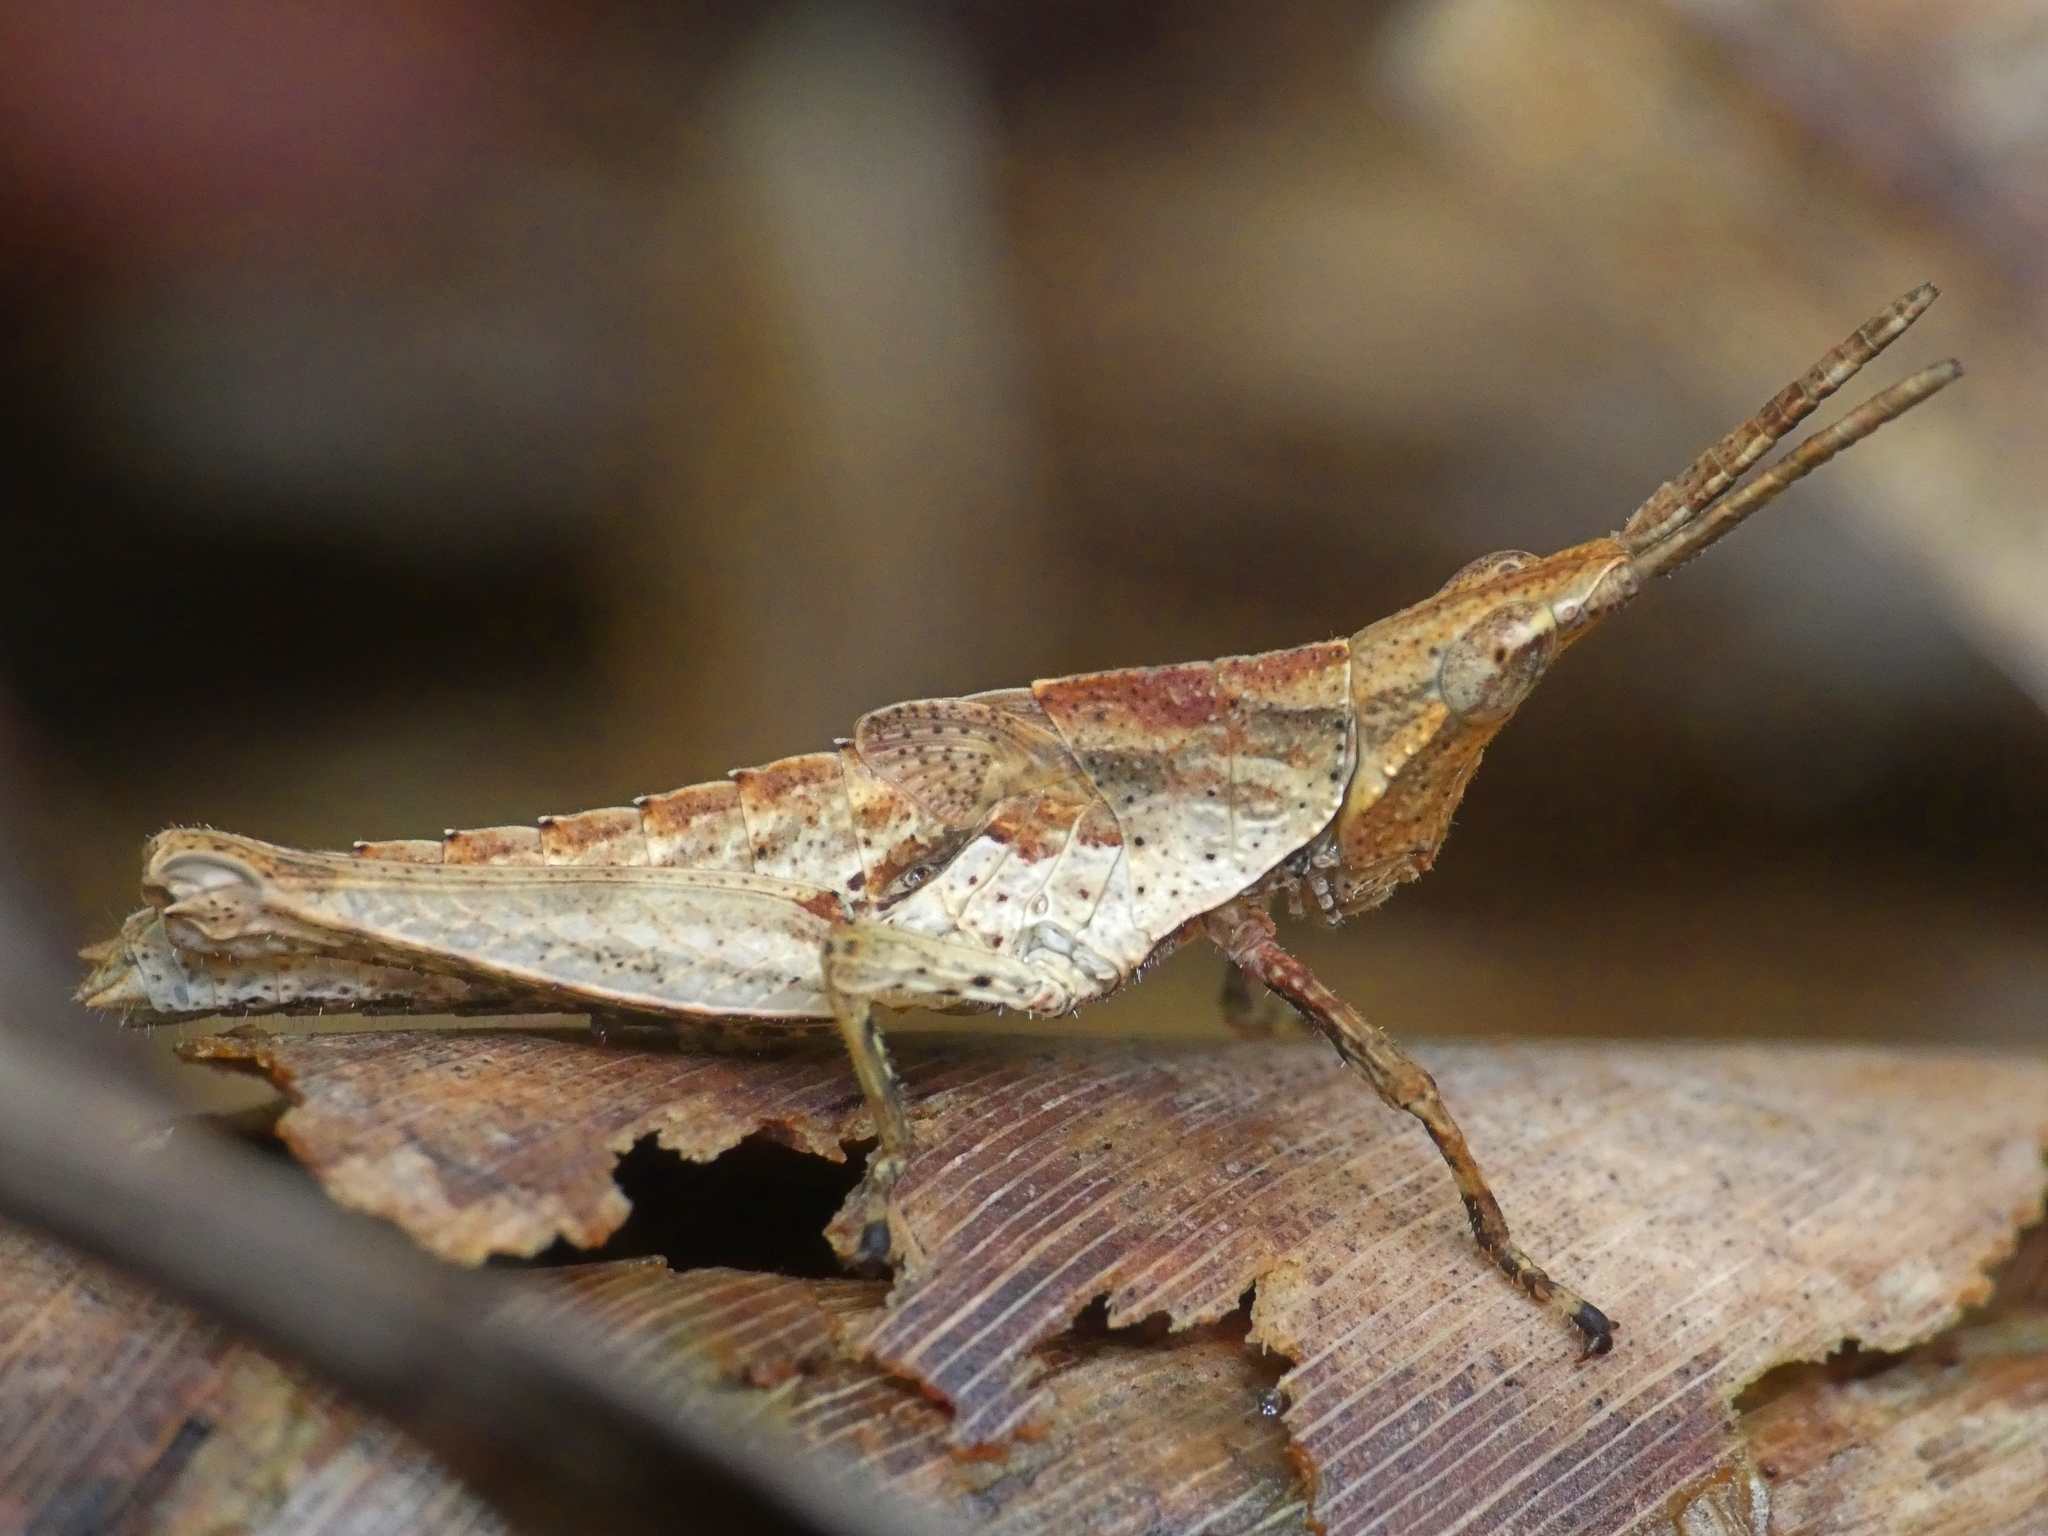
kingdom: Animalia
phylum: Arthropoda
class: Insecta
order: Orthoptera
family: Pyrgomorphidae
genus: Desmoptera
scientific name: Desmoptera truncatipennis
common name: Large forest pyrgomorph
